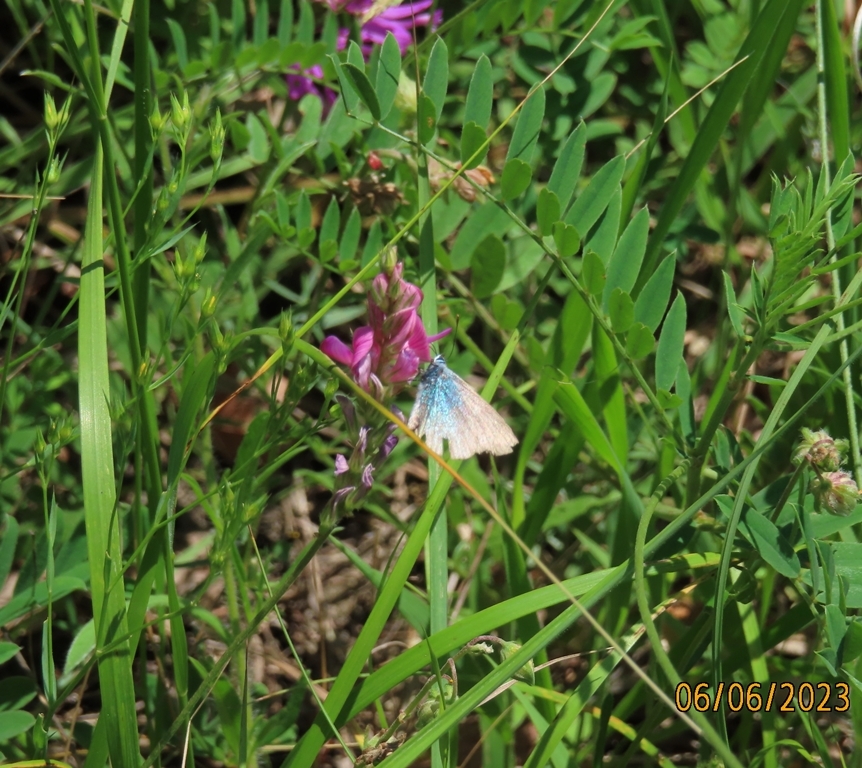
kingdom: Animalia
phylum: Arthropoda
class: Insecta
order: Lepidoptera
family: Lycaenidae
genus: Glaucopsyche
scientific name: Glaucopsyche alexis
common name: Green-underside blue
